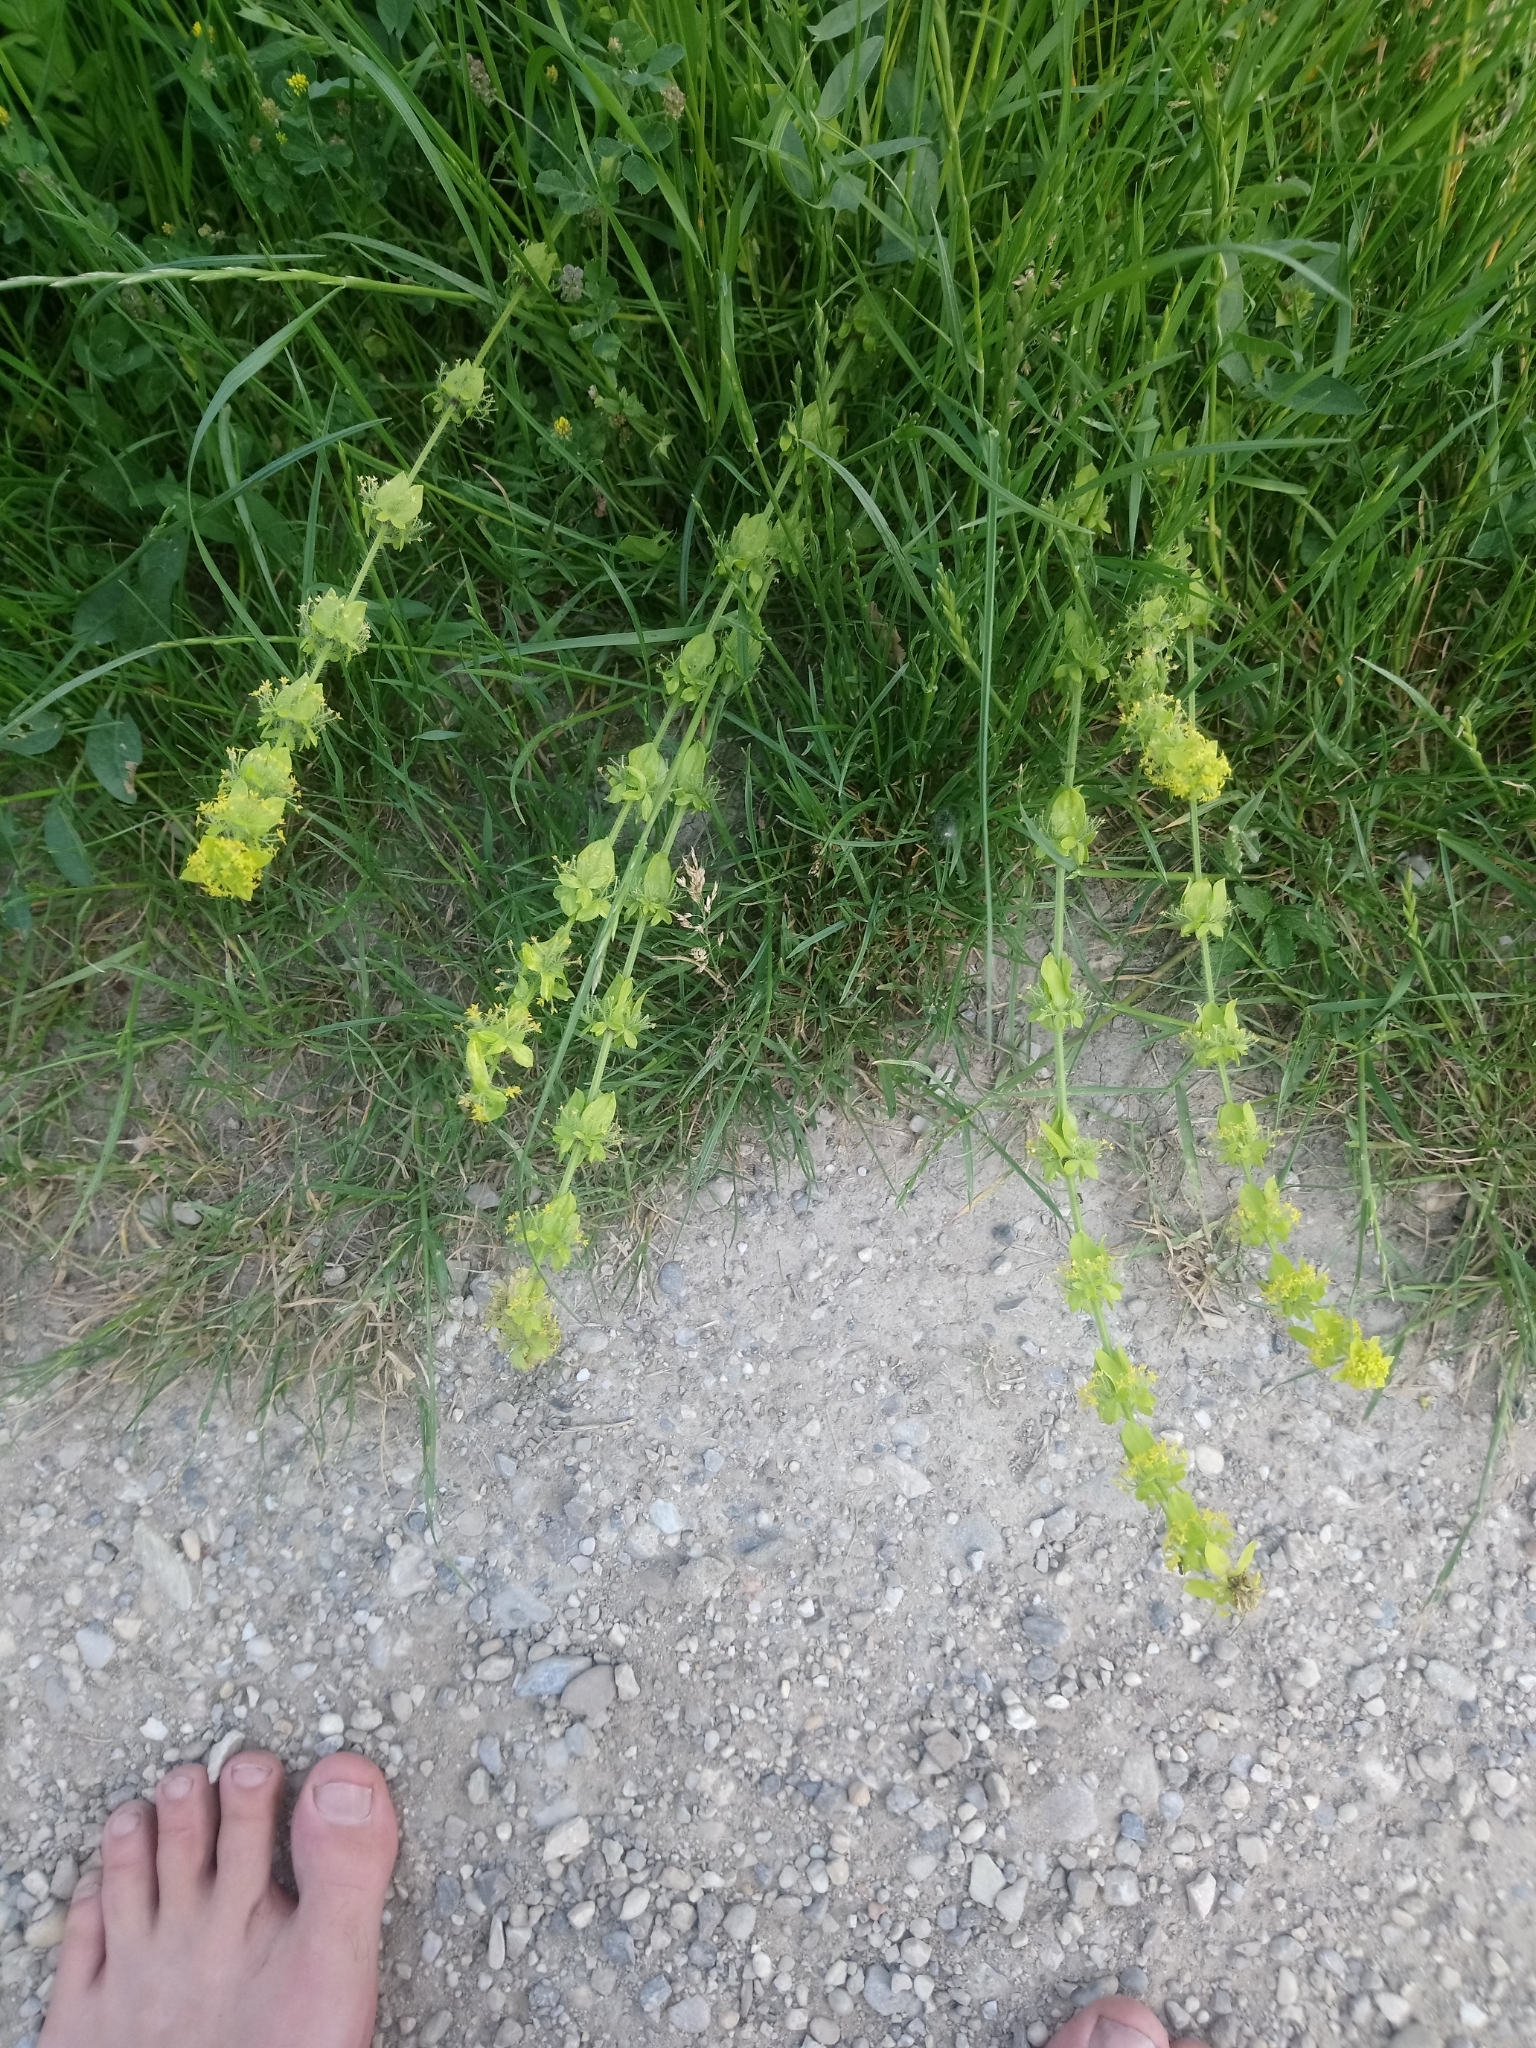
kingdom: Plantae
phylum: Tracheophyta
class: Magnoliopsida
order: Gentianales
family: Rubiaceae
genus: Cruciata
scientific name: Cruciata laevipes
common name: Crosswort
